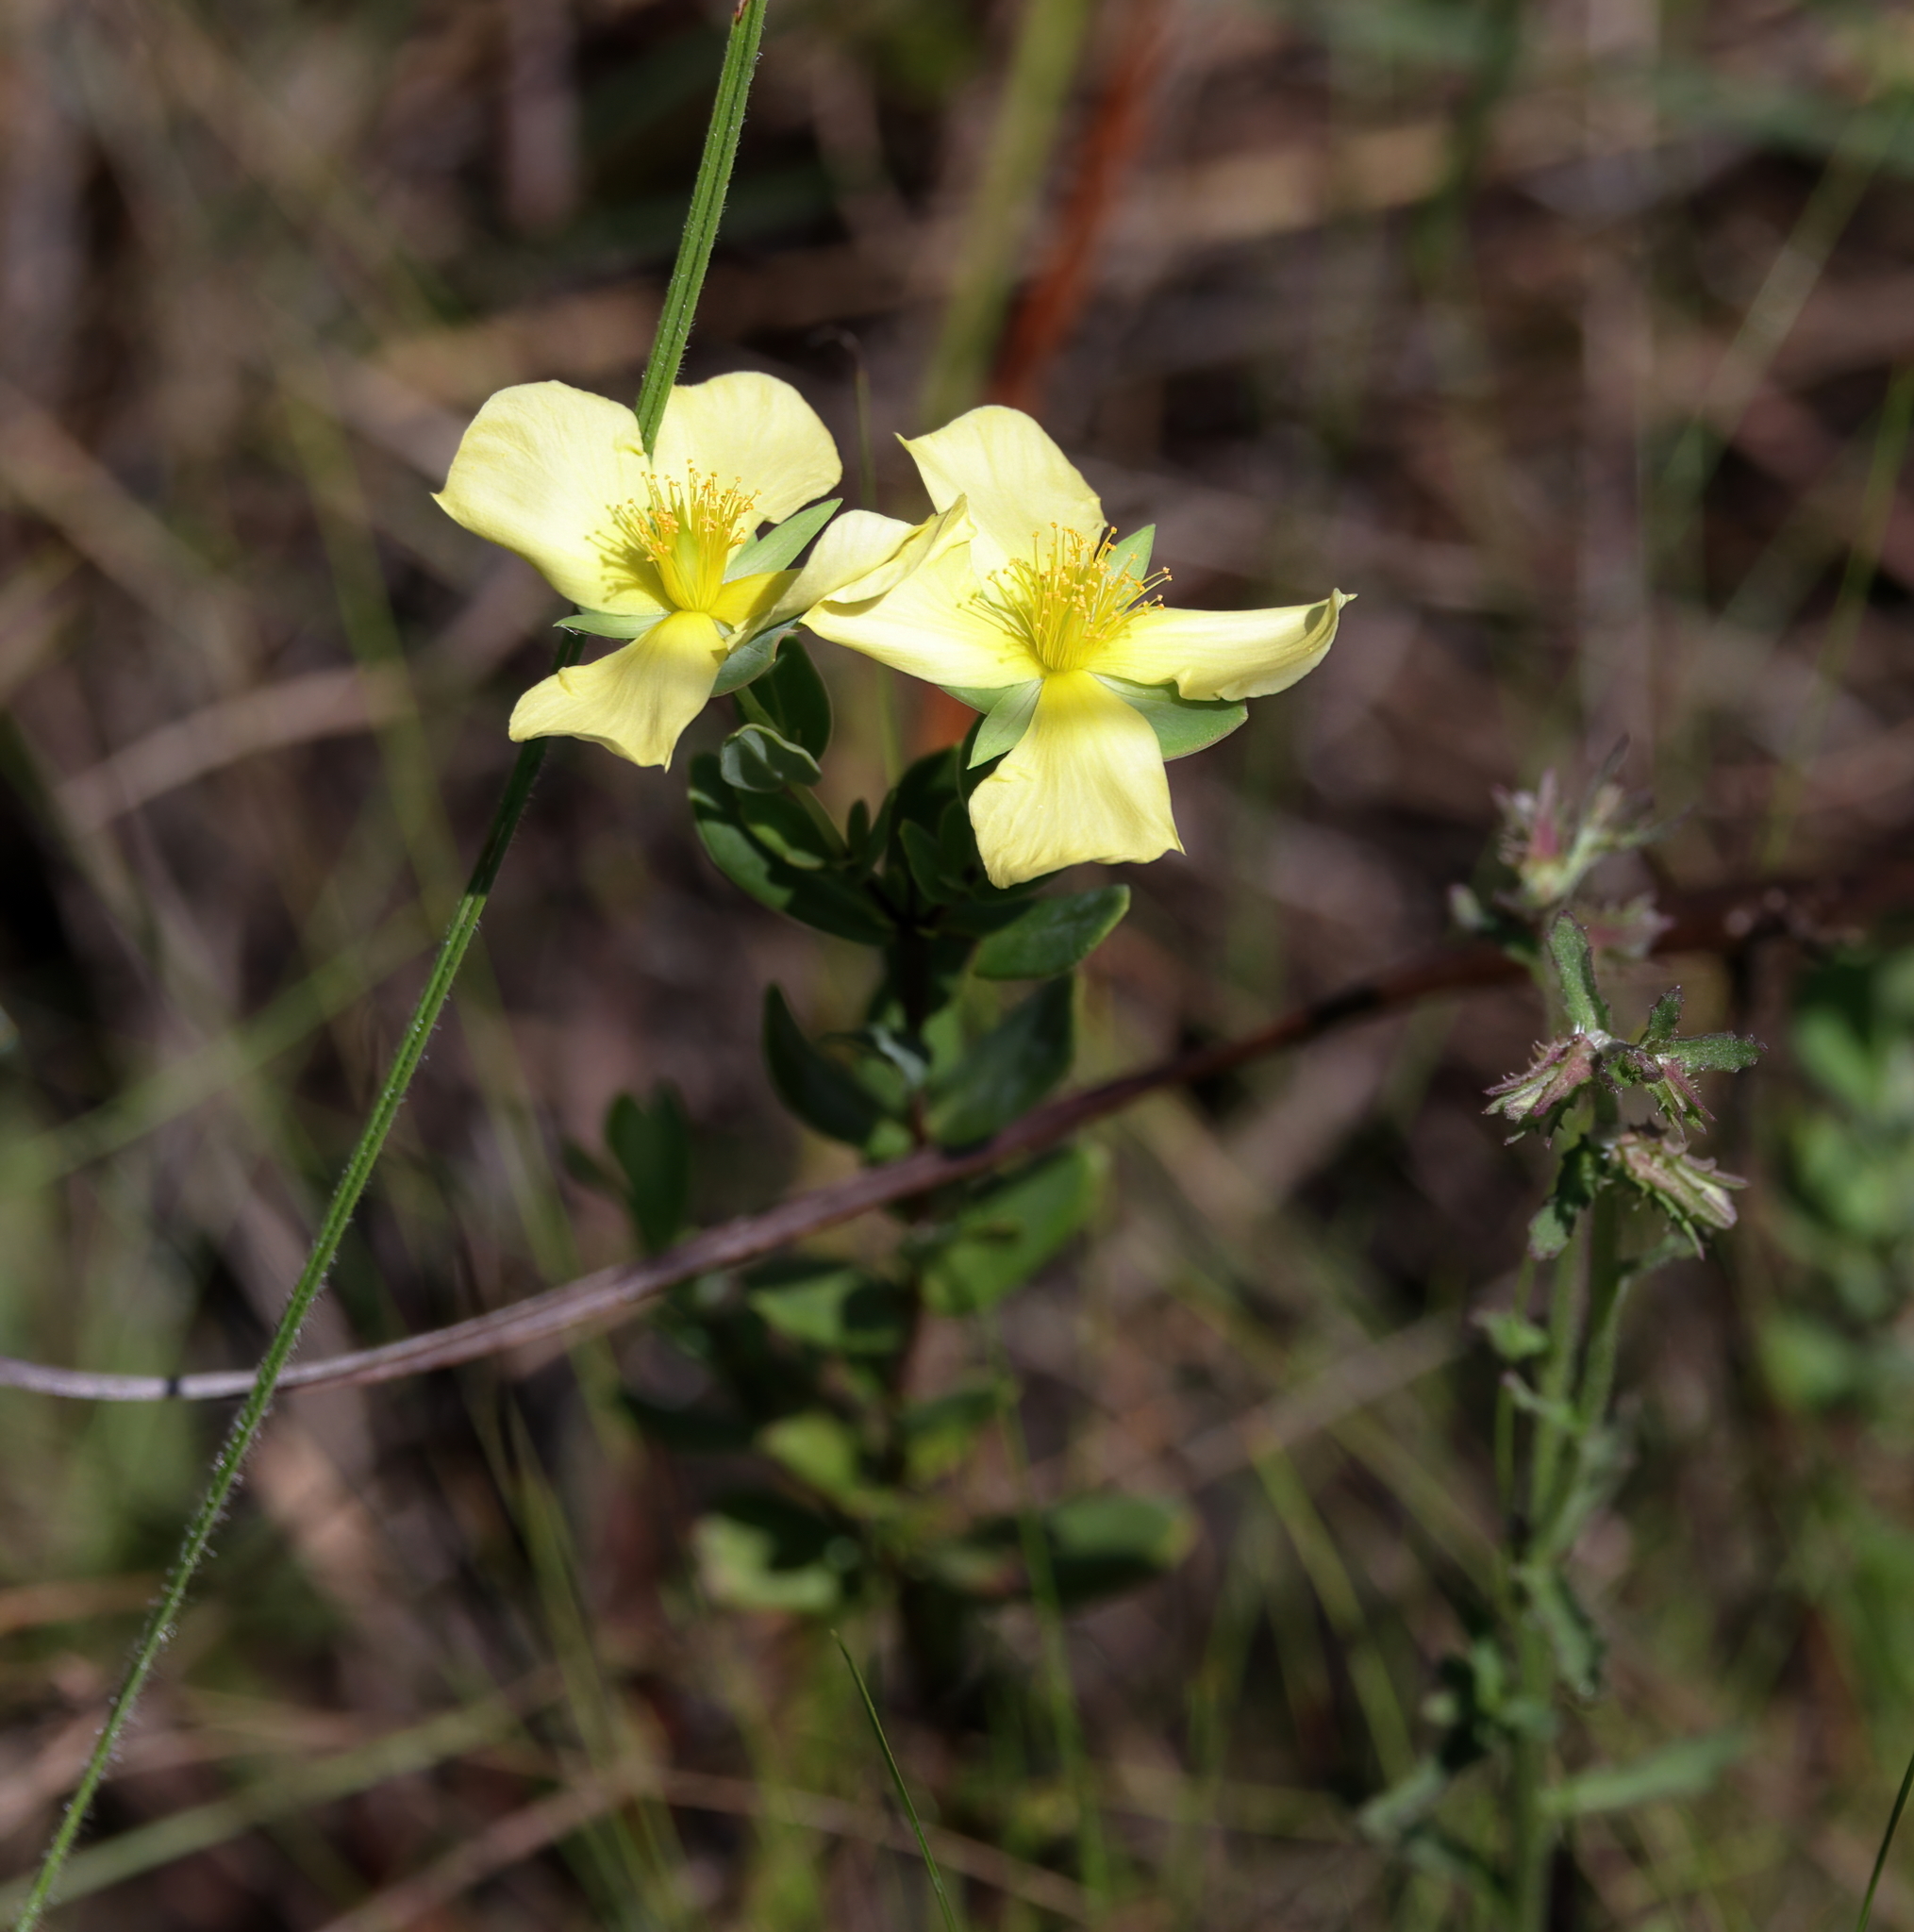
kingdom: Plantae
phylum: Tracheophyta
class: Magnoliopsida
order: Malpighiales
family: Hypericaceae
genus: Hypericum
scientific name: Hypericum crux-andreae
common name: St.-peter's-wort
